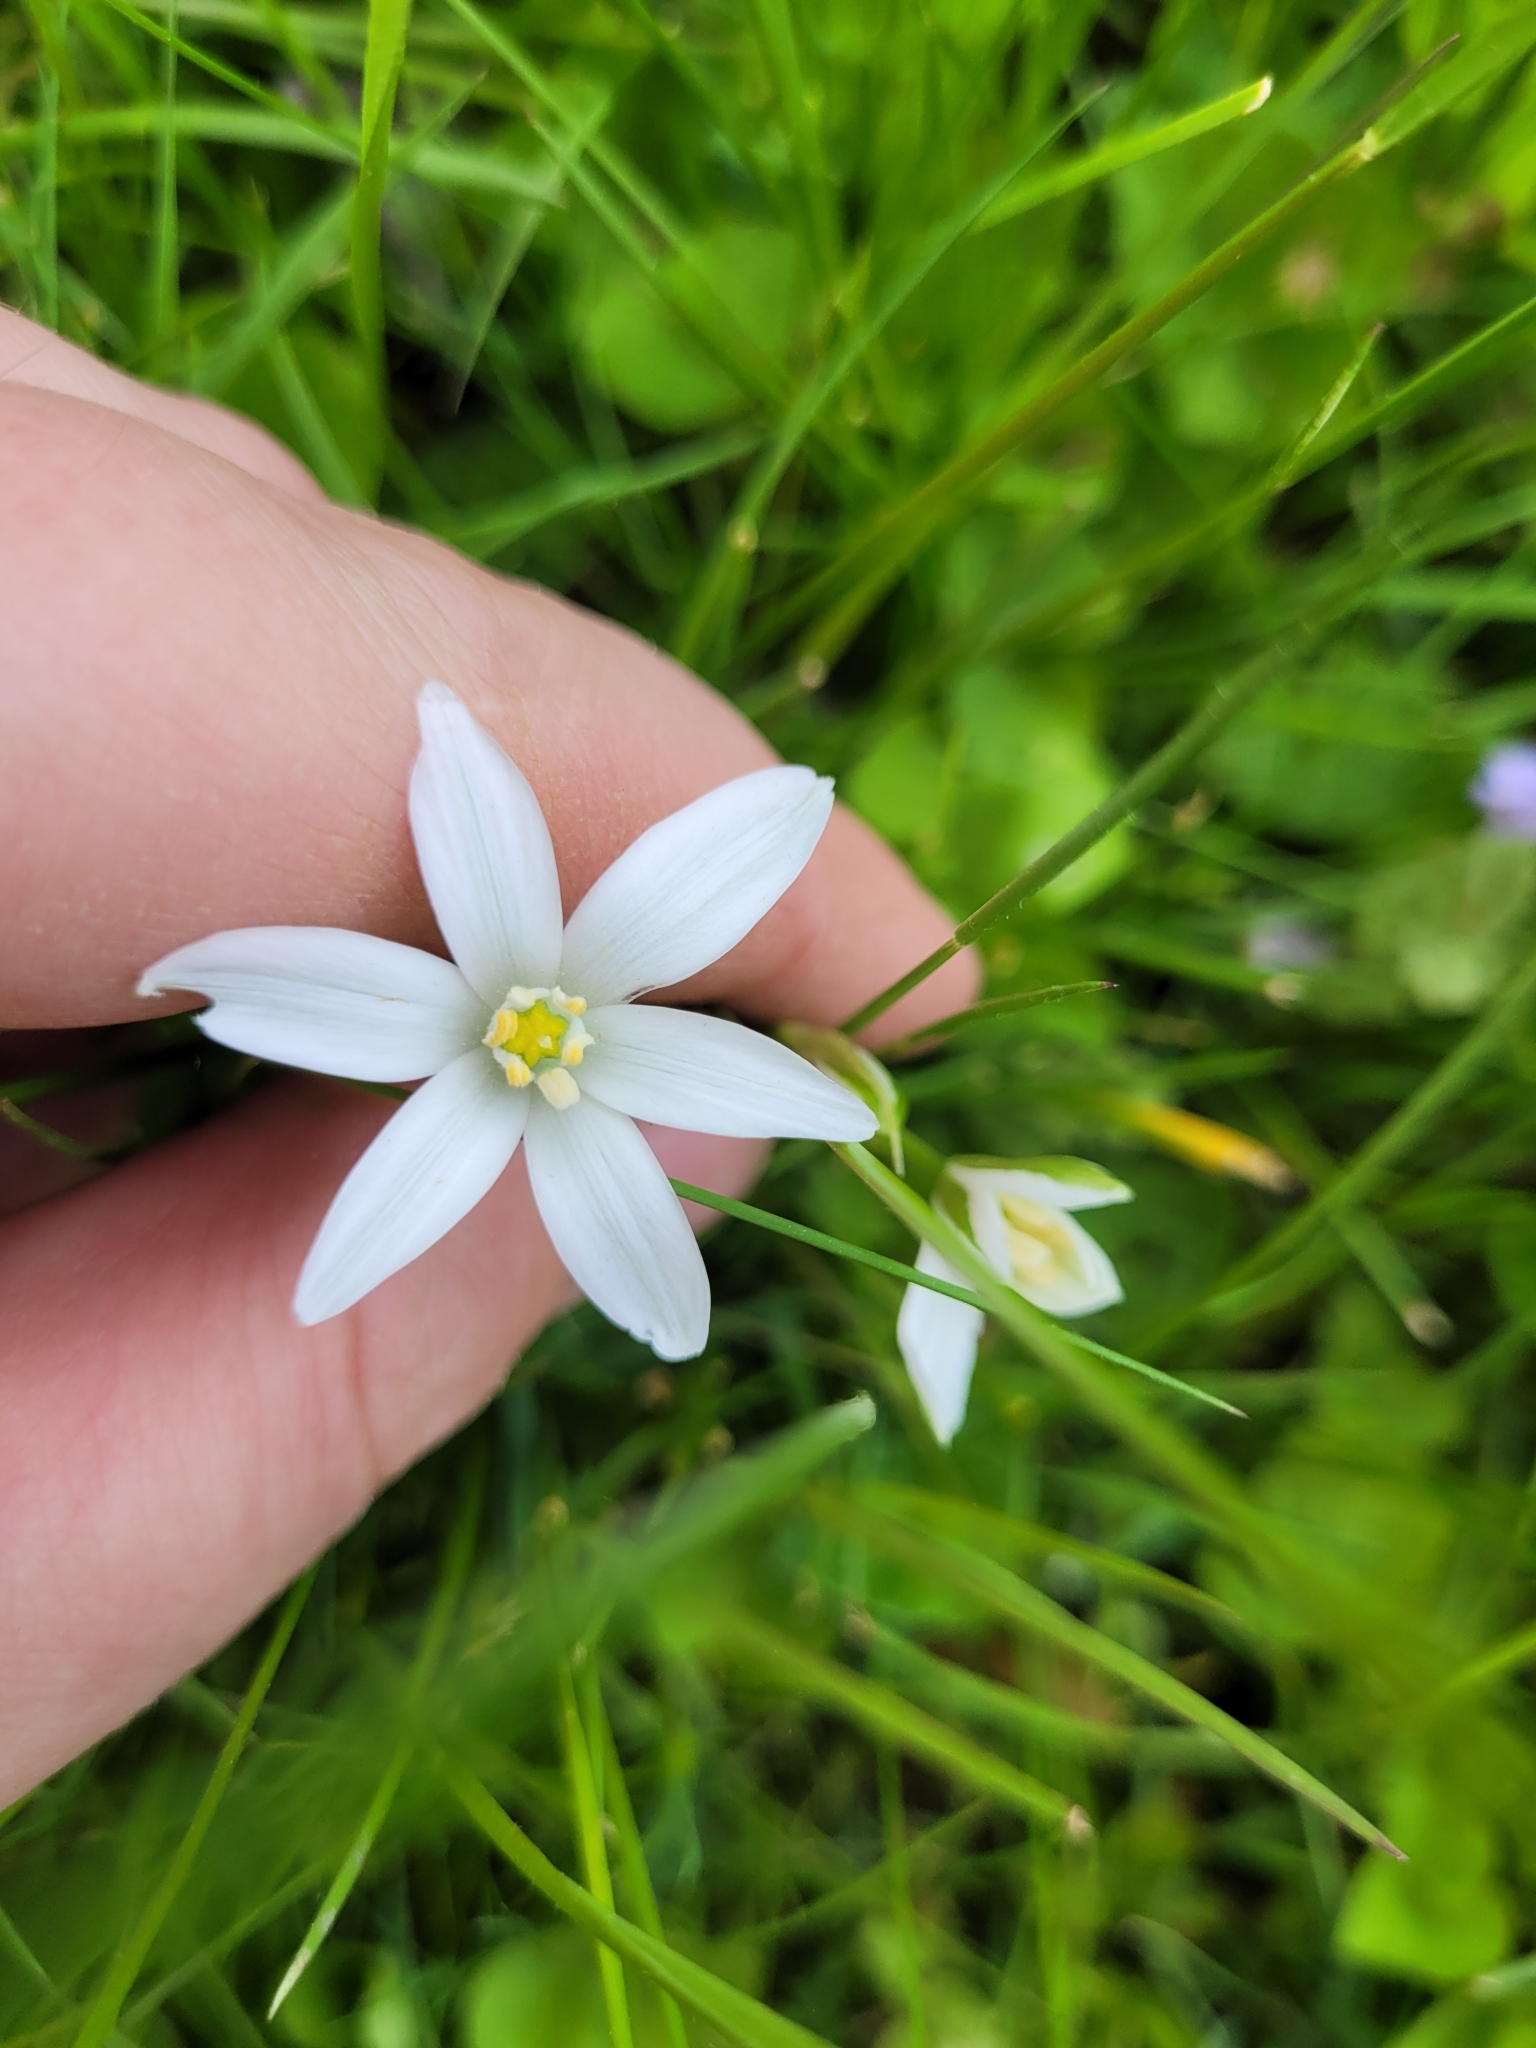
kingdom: Plantae
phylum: Tracheophyta
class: Liliopsida
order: Asparagales
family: Asparagaceae
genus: Ornithogalum
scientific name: Ornithogalum umbellatum
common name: Garden star-of-bethlehem
